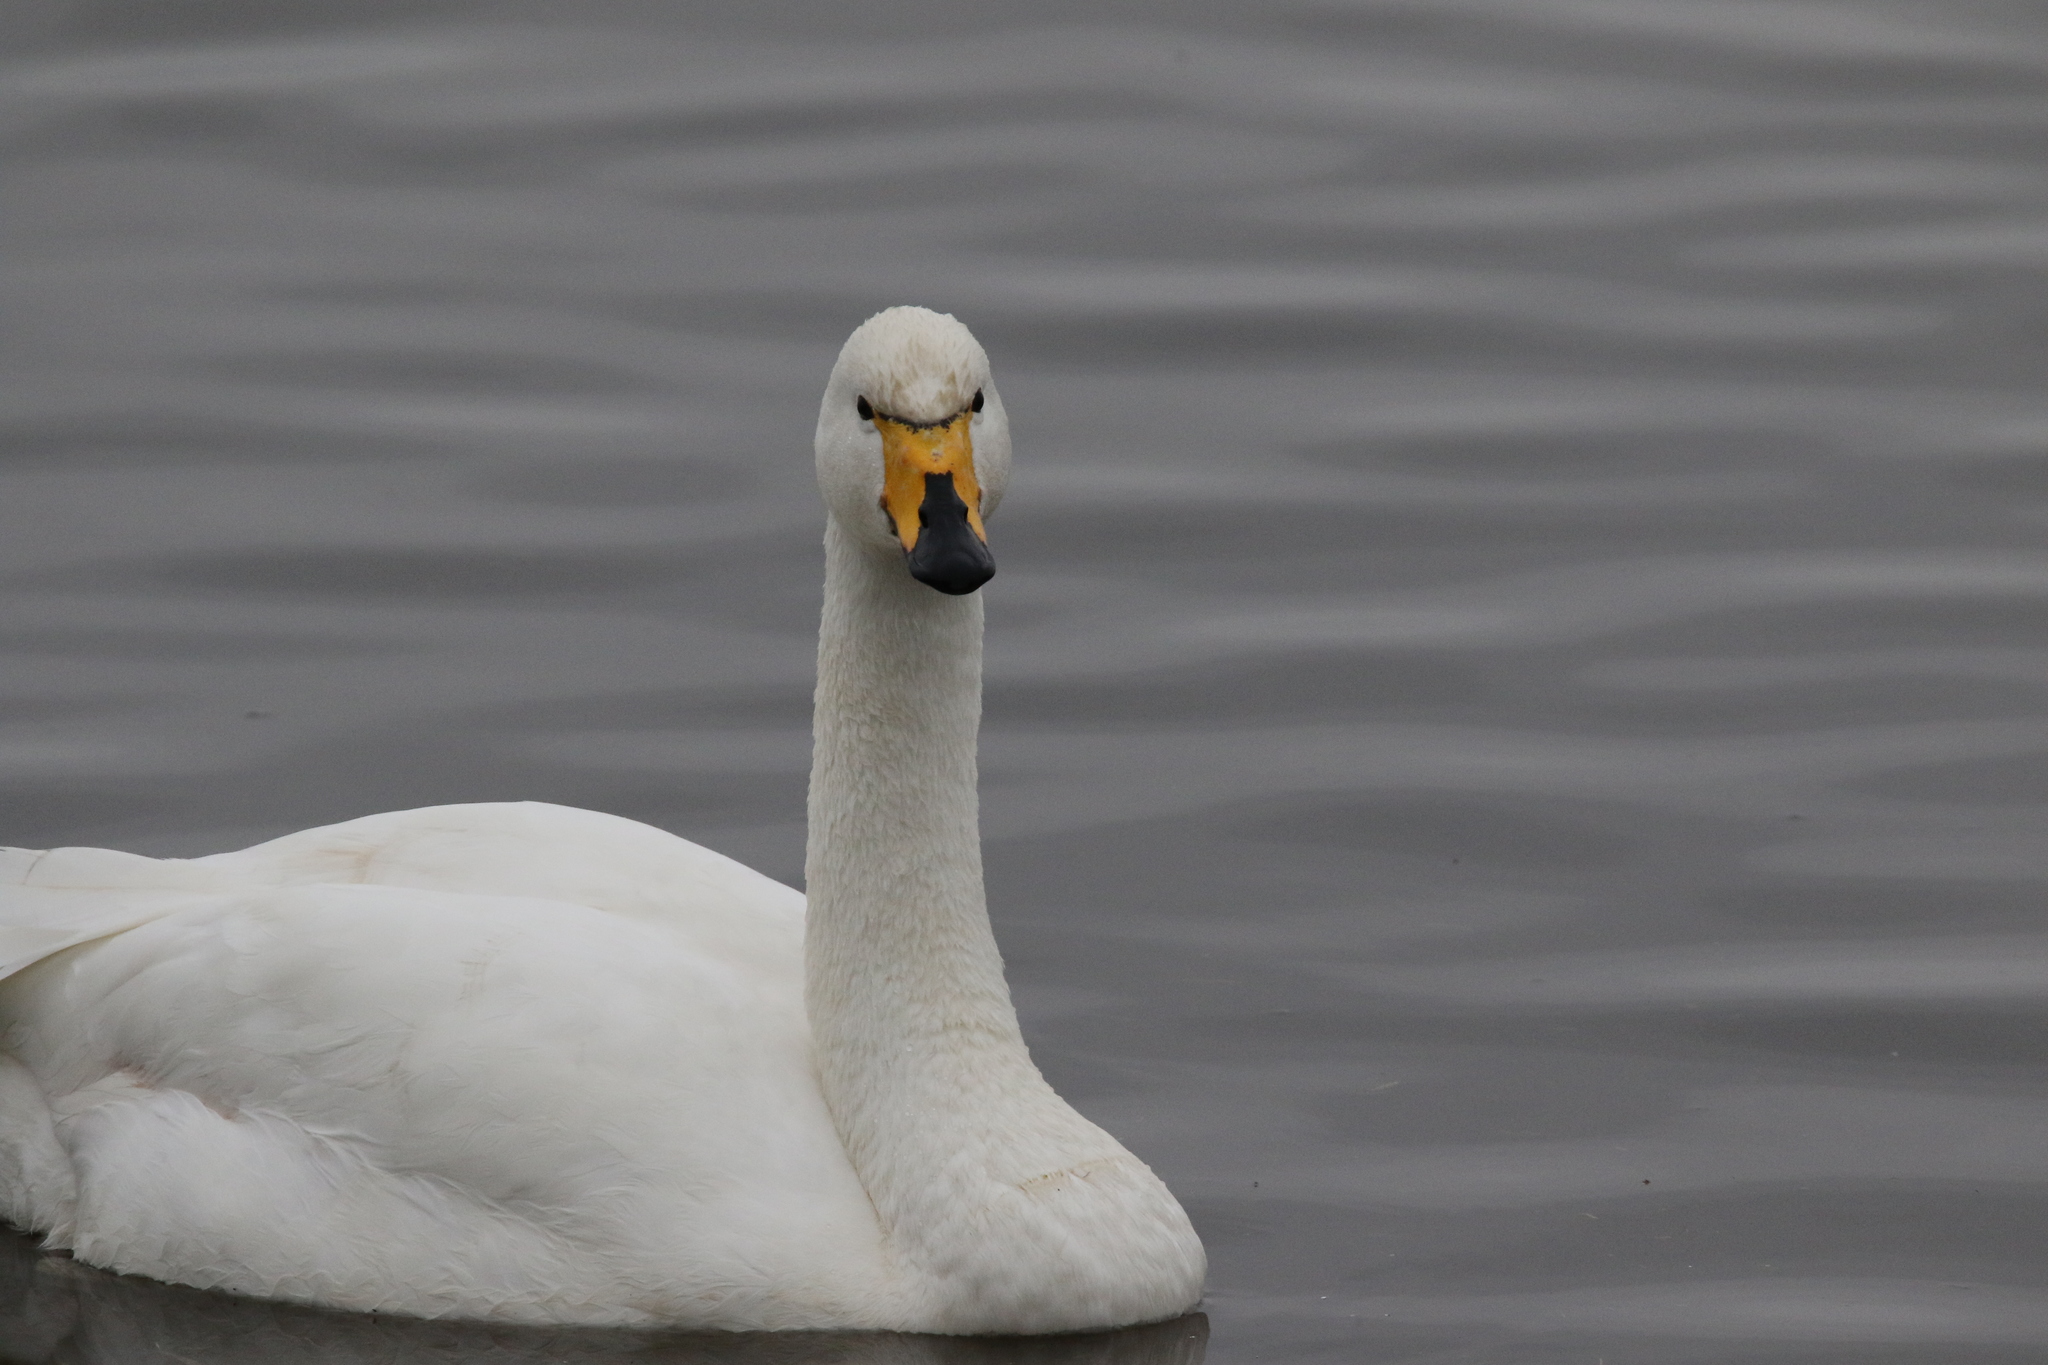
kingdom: Animalia
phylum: Chordata
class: Aves
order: Anseriformes
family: Anatidae
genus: Cygnus
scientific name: Cygnus cygnus
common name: Whooper swan
